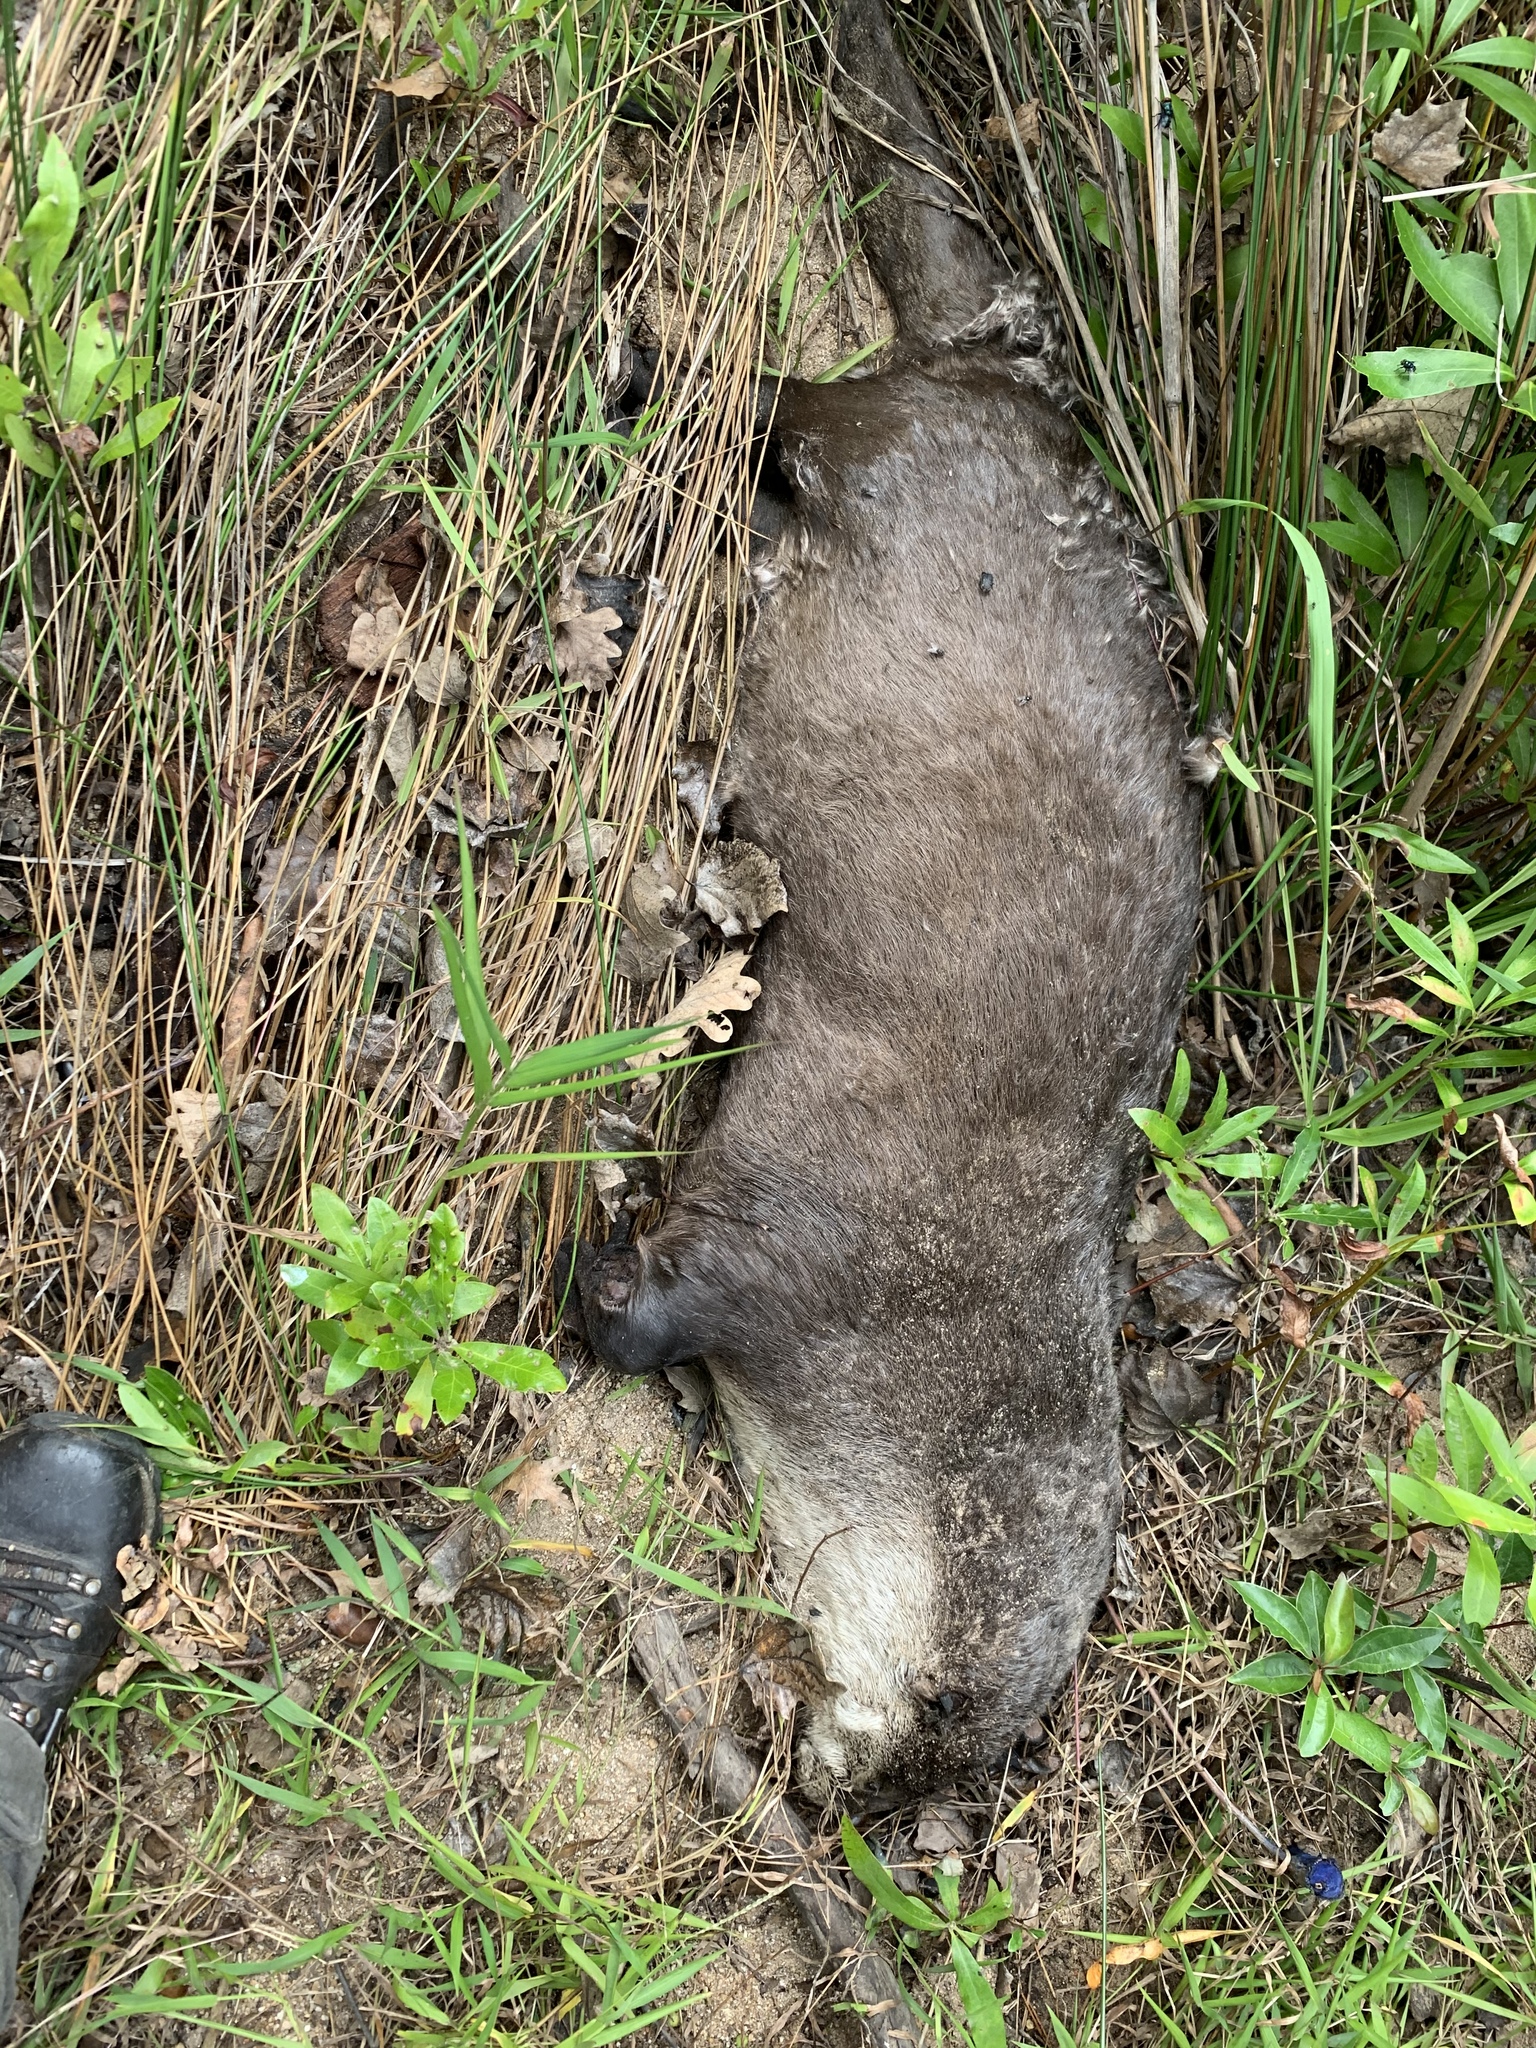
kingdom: Animalia
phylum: Chordata
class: Mammalia
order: Carnivora
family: Mustelidae
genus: Aonyx
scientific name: Aonyx capensis
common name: African clawless otter
